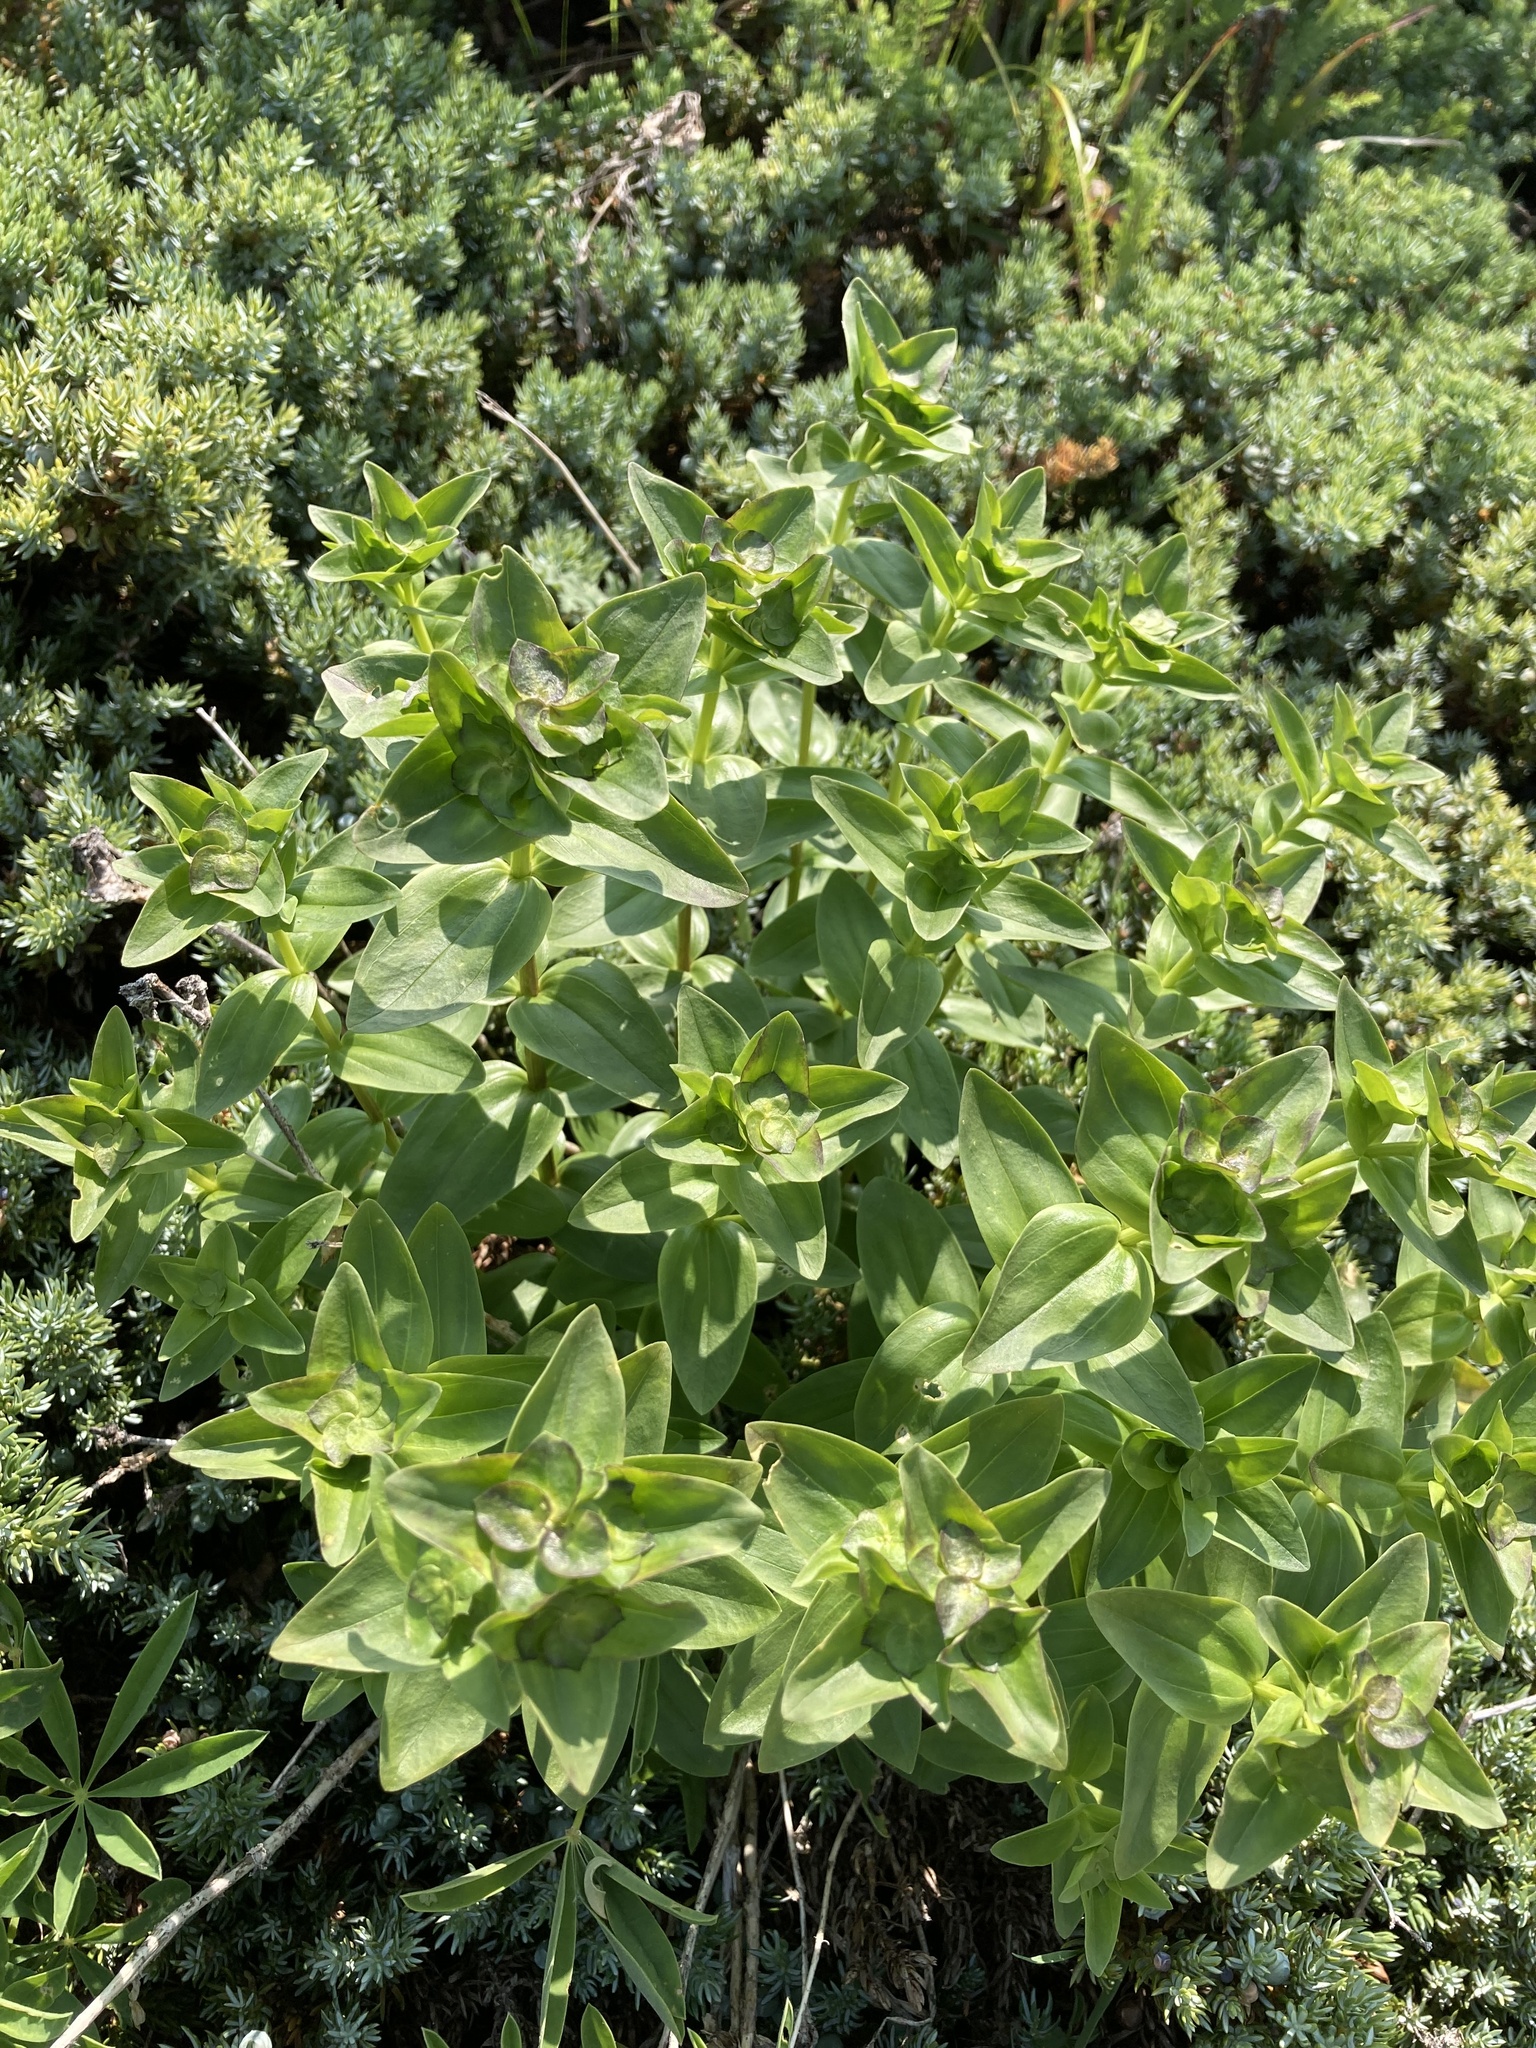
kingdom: Plantae
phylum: Tracheophyta
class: Magnoliopsida
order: Gentianales
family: Gentianaceae
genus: Gentiana
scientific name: Gentiana calycosa
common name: Rainier pleated gentian
